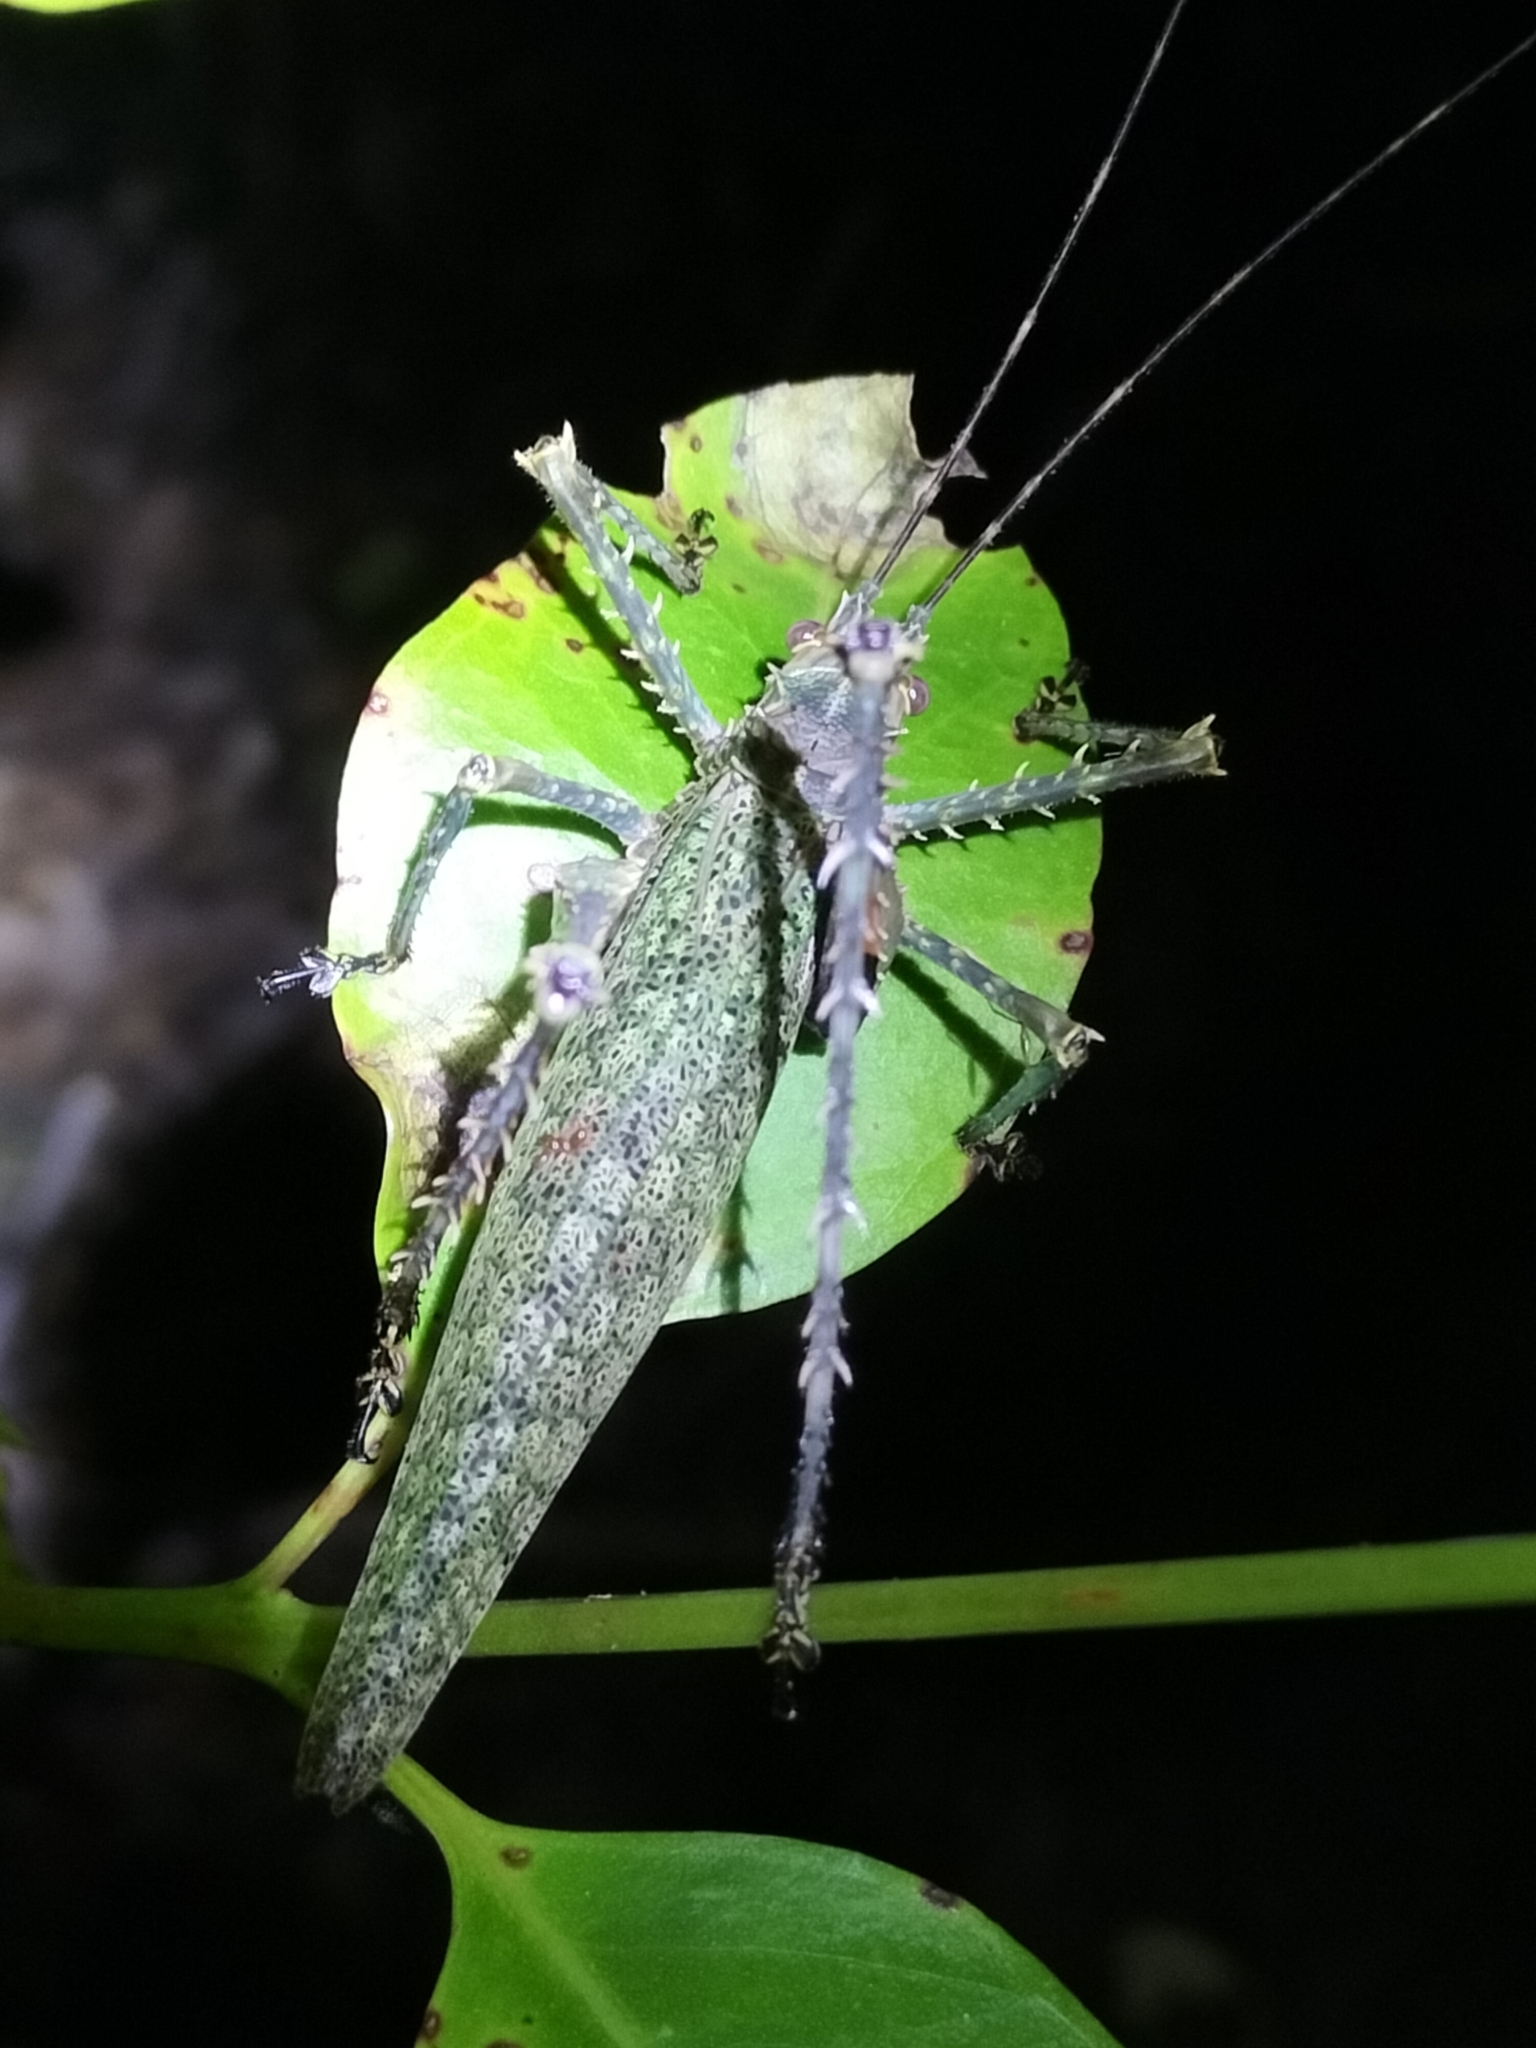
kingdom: Animalia
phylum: Arthropoda
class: Insecta
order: Orthoptera
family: Tettigoniidae
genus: Phricta
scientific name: Phricta spinosa
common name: Giant spiny forest katydid
